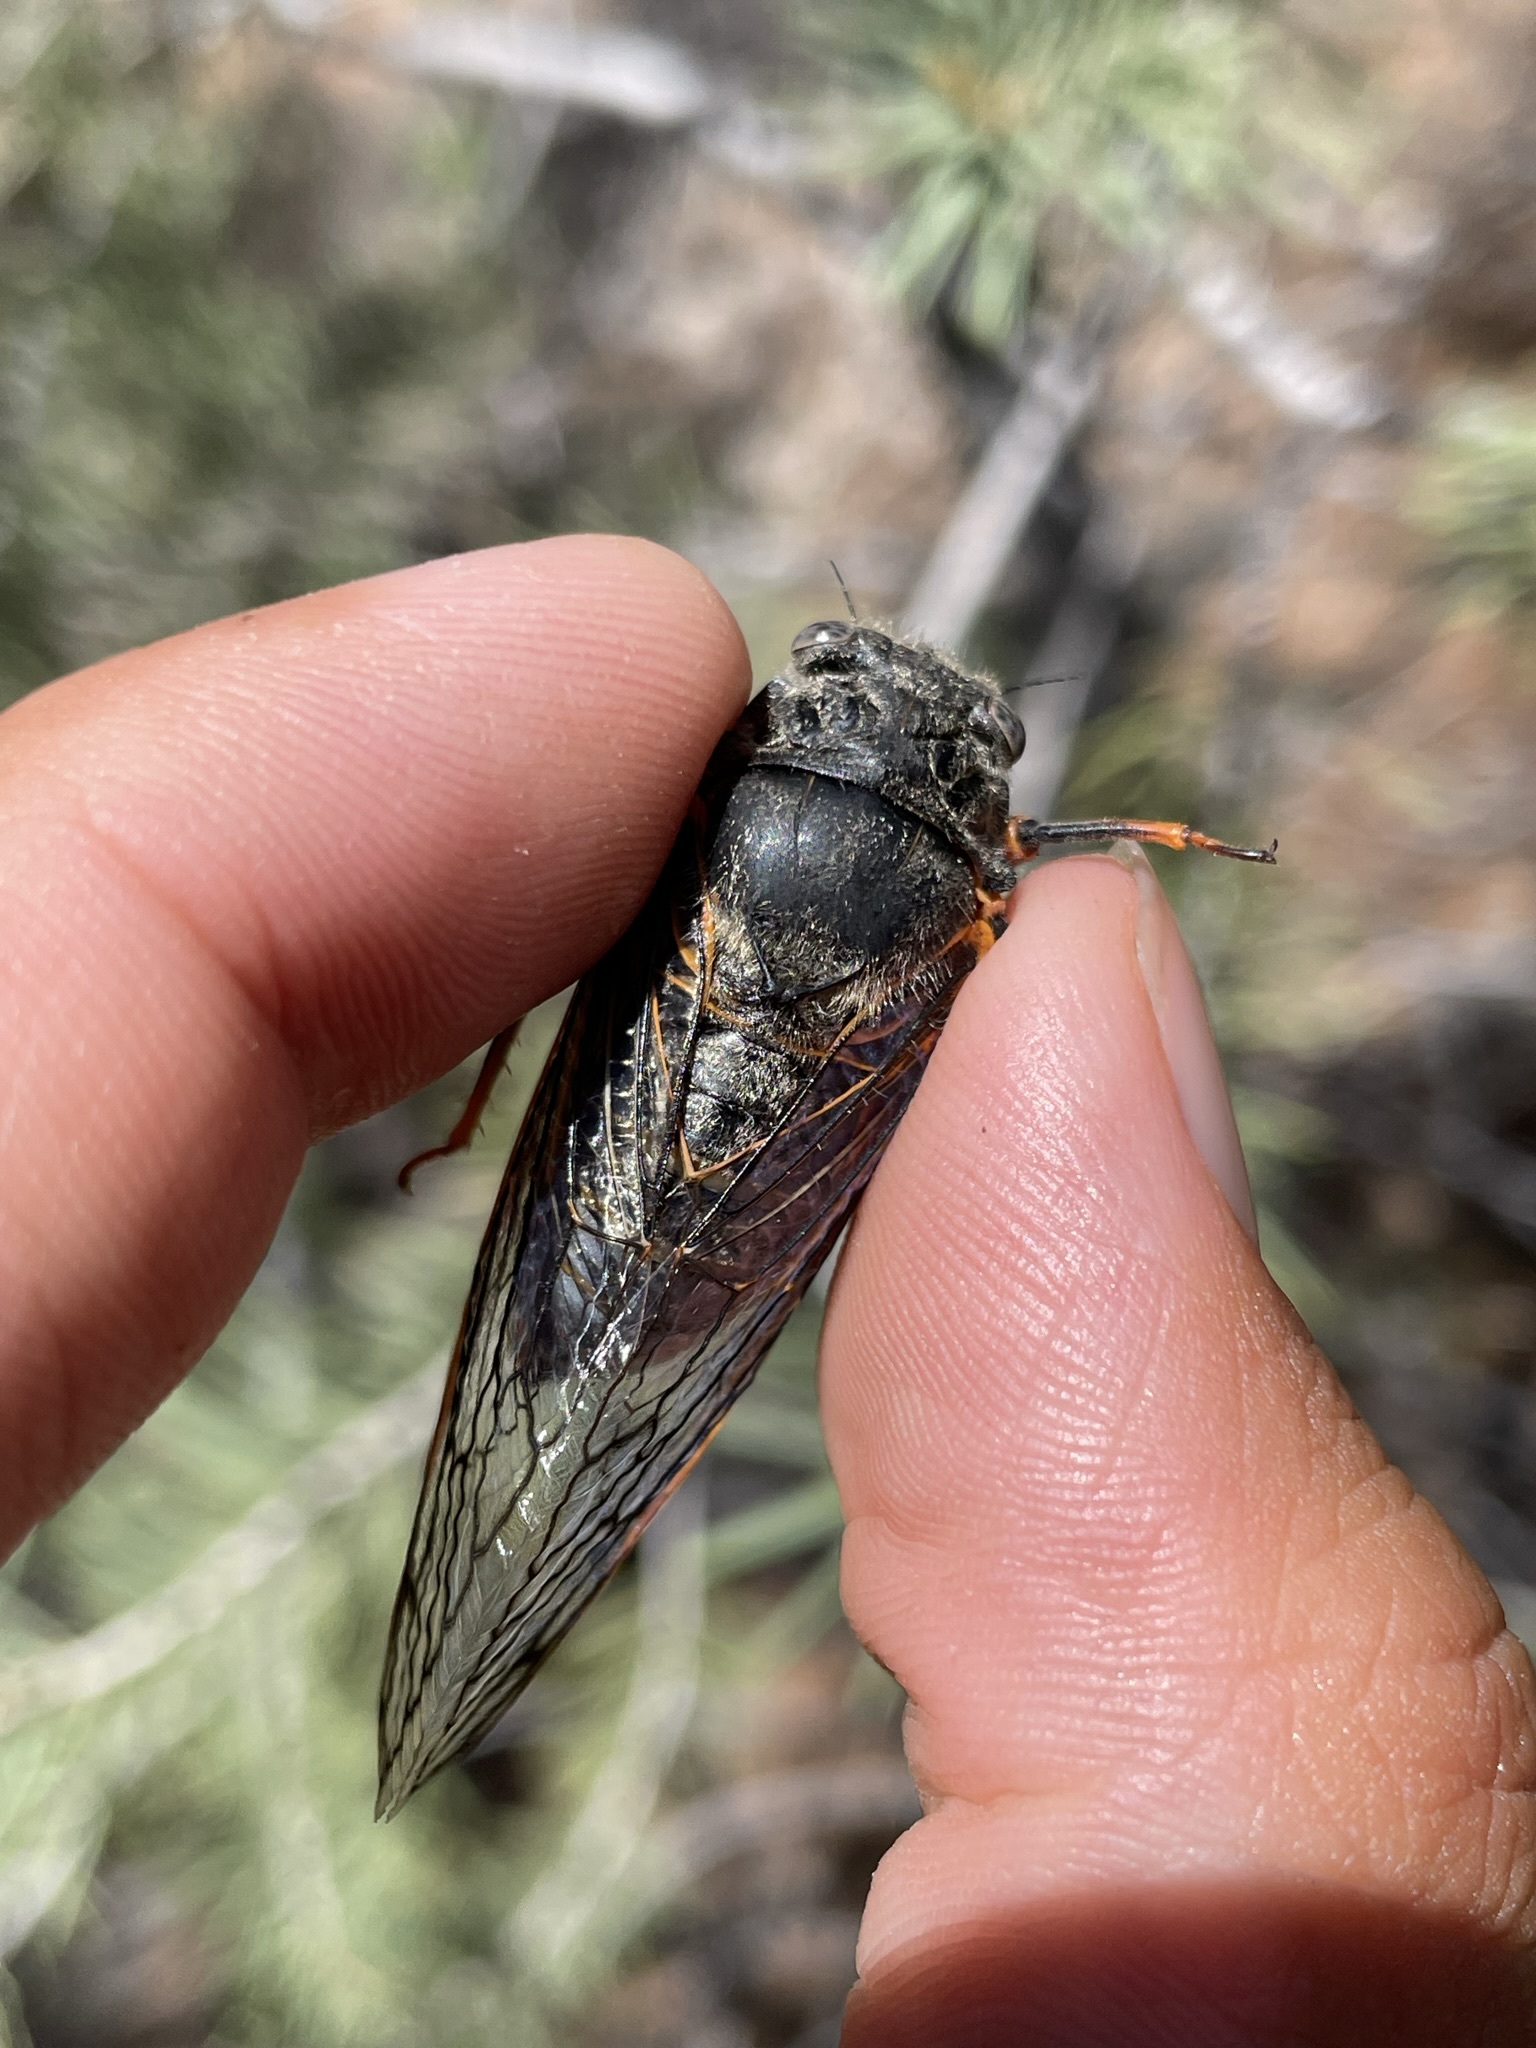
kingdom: Animalia
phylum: Arthropoda
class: Insecta
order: Hemiptera
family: Cicadidae
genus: Okanagana
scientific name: Okanagana magnifica
